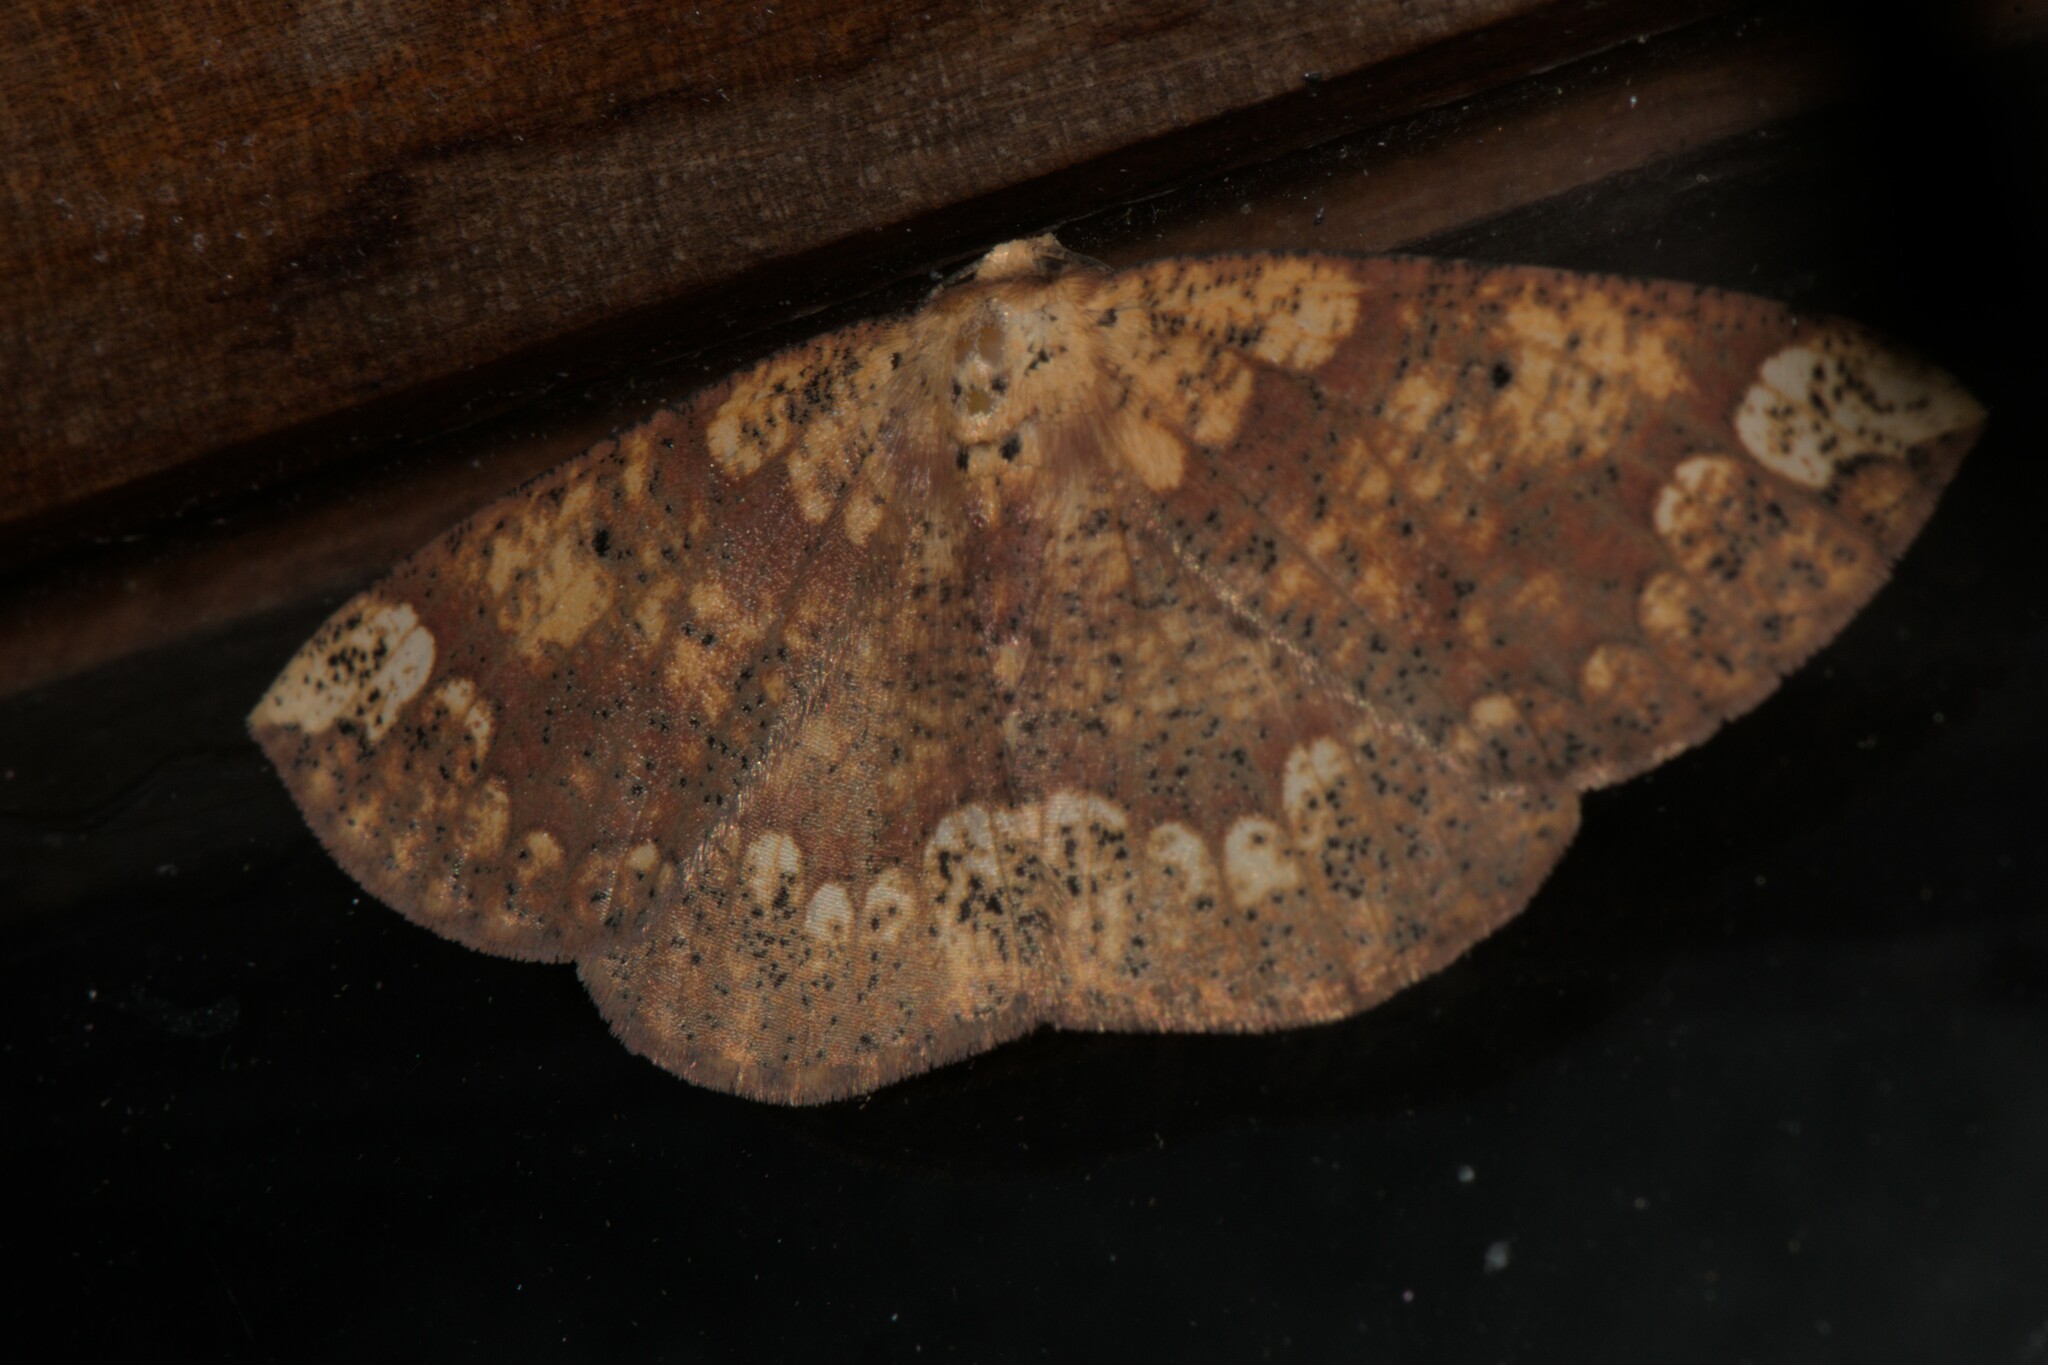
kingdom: Animalia
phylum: Arthropoda
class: Insecta
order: Lepidoptera
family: Geometridae
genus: Heterostegania
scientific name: Heterostegania lunulosa
